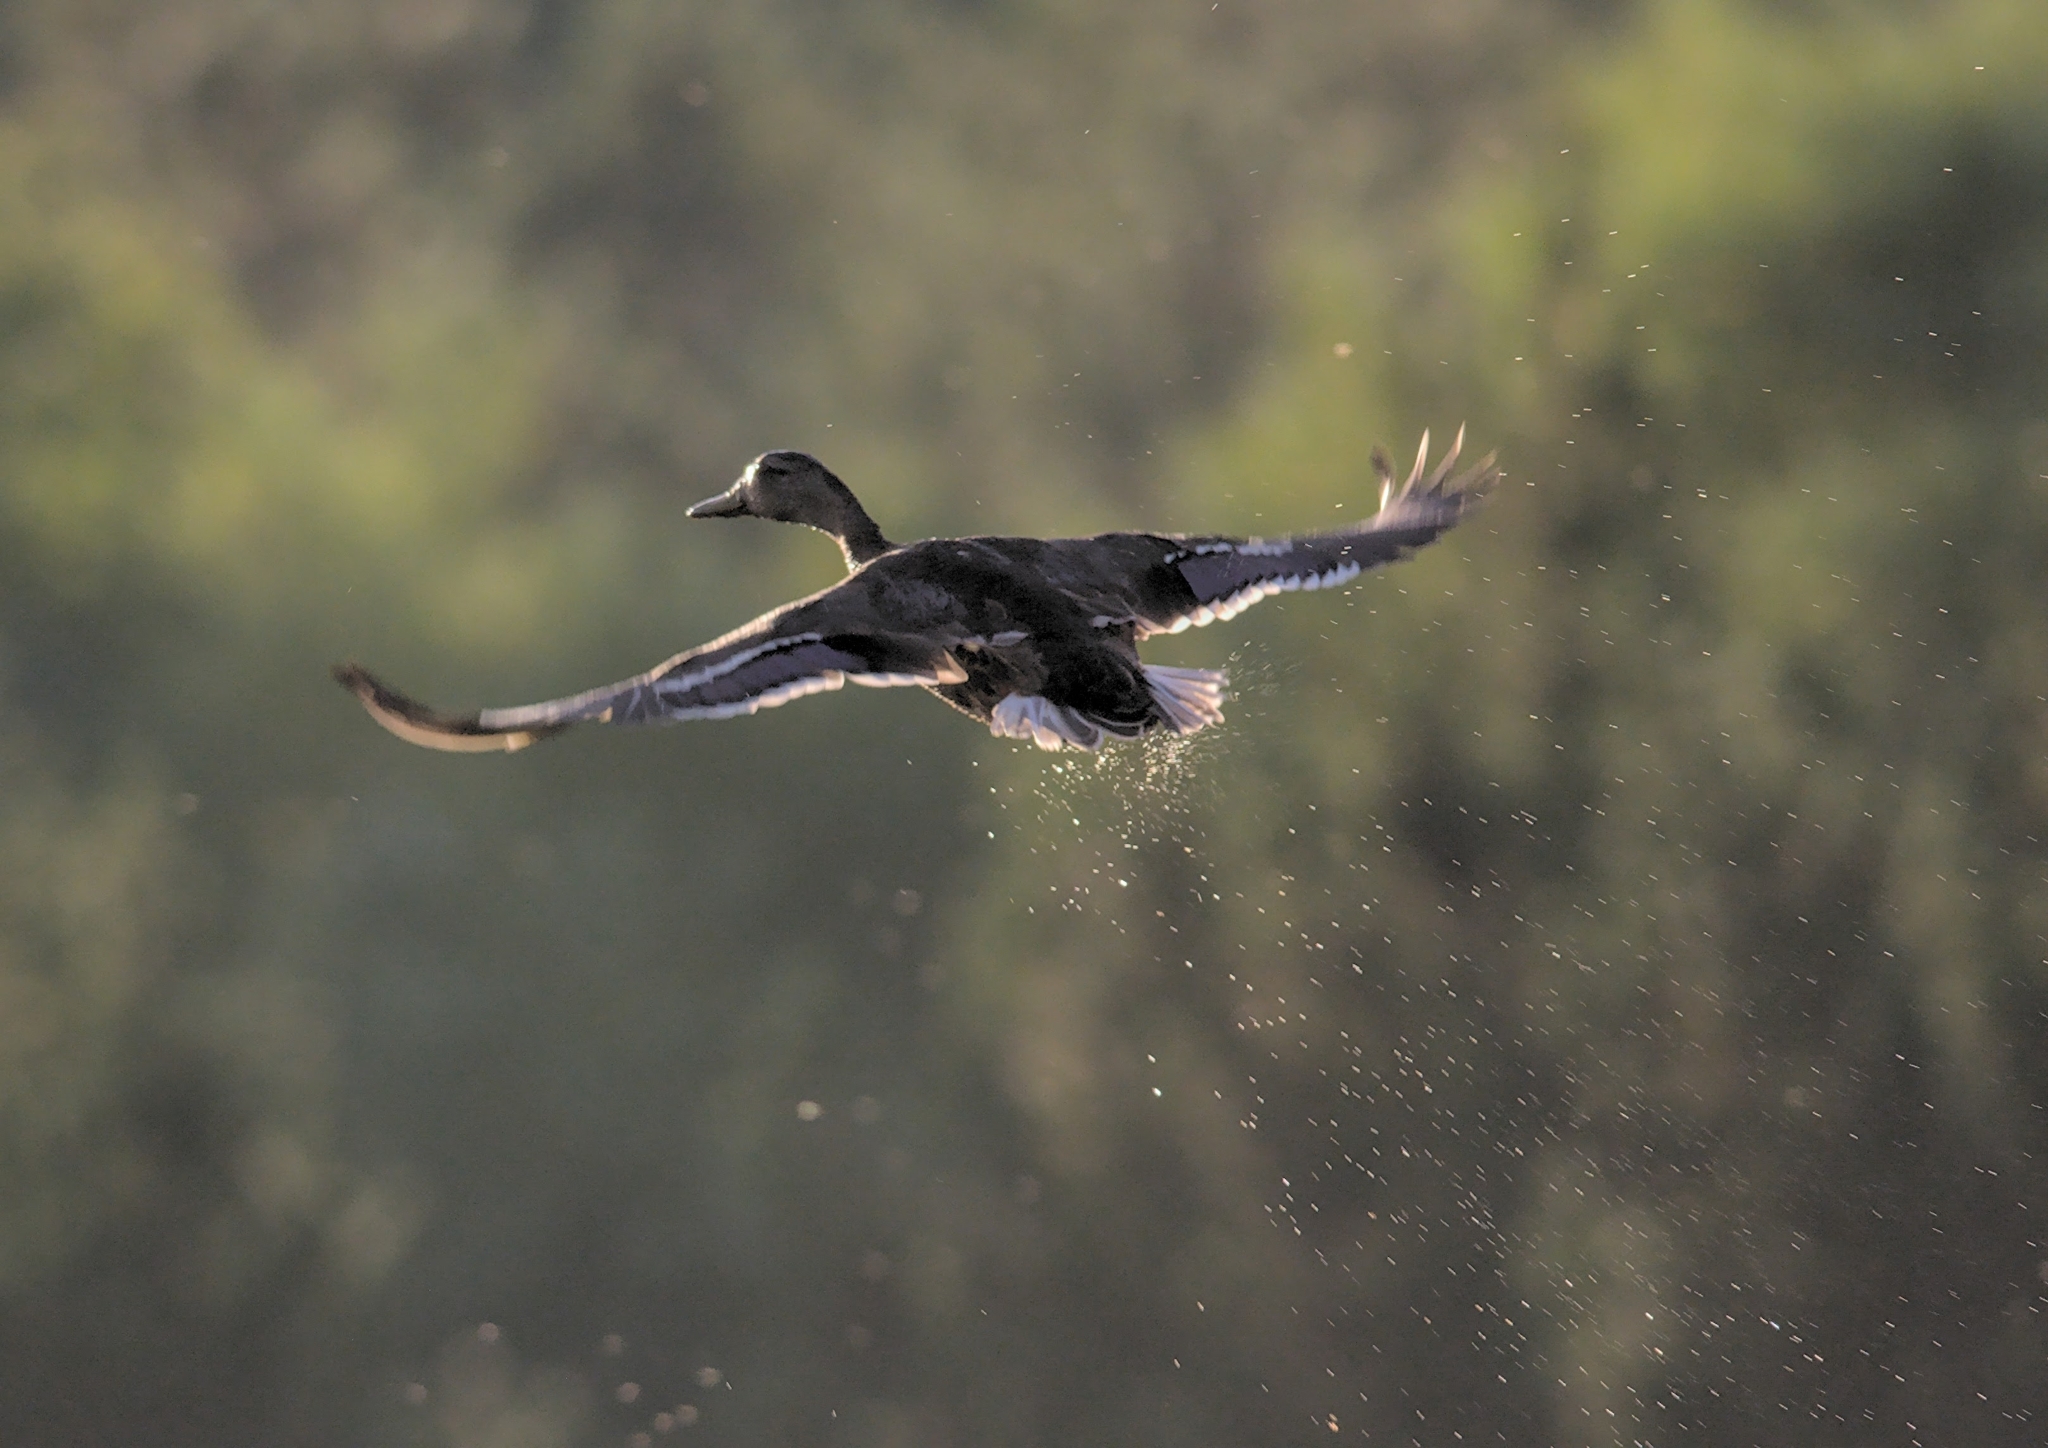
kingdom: Animalia
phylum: Chordata
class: Aves
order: Anseriformes
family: Anatidae
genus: Anas
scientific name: Anas platyrhynchos
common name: Mallard
